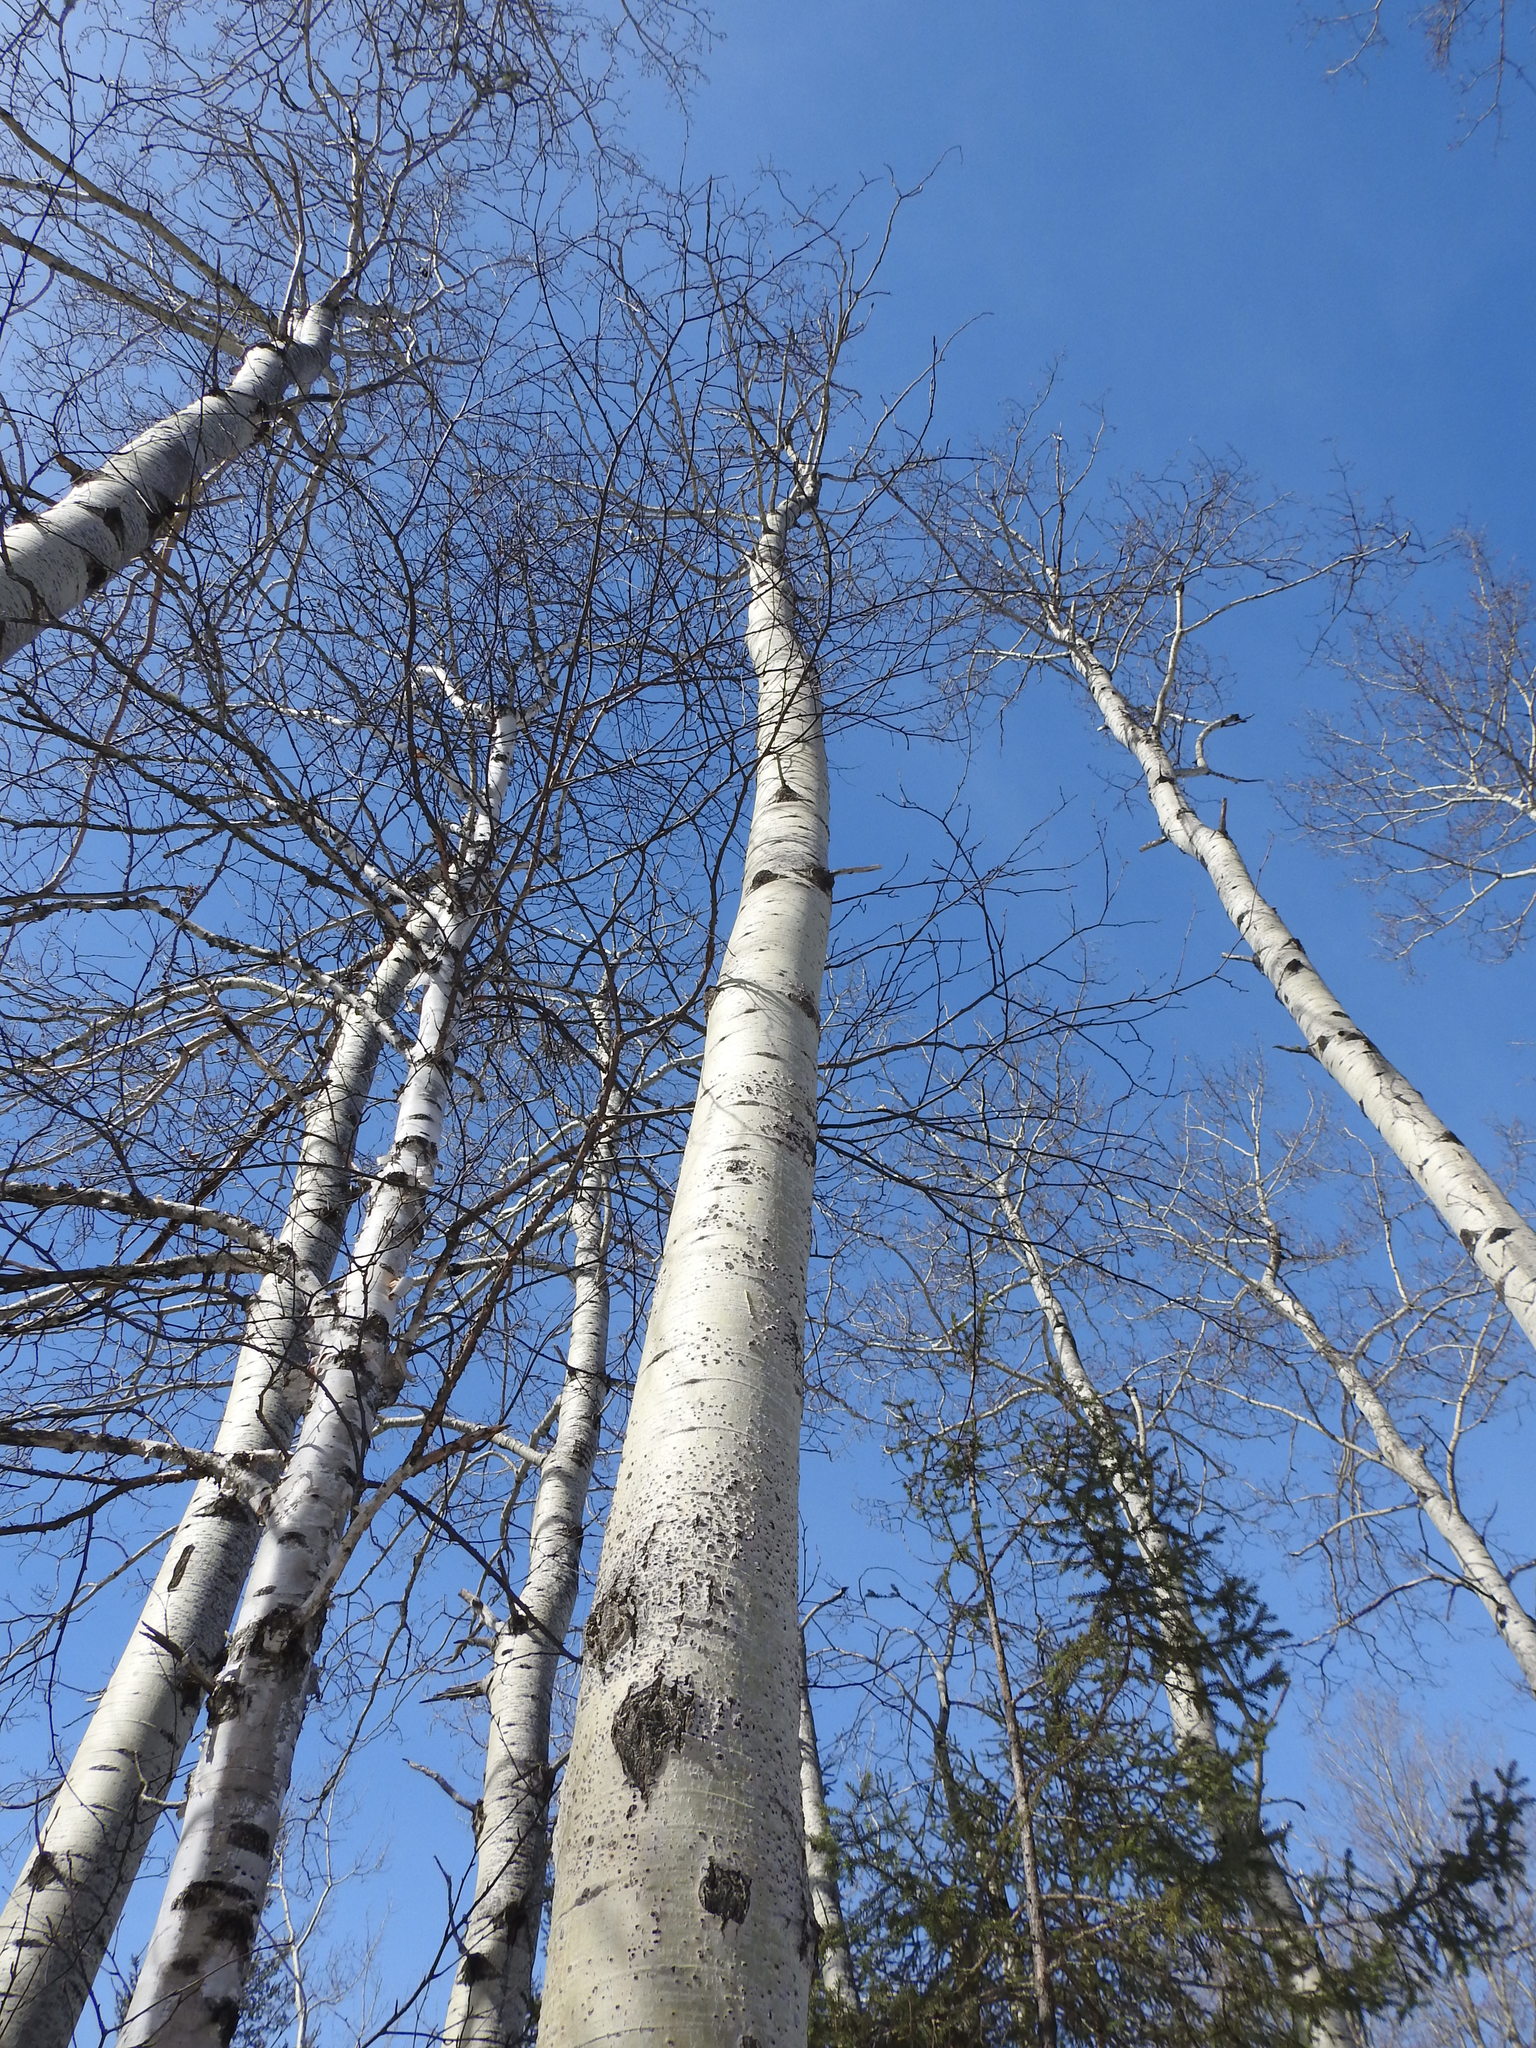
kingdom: Plantae
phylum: Tracheophyta
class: Magnoliopsida
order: Malpighiales
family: Salicaceae
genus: Populus
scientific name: Populus tremuloides
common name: Quaking aspen
